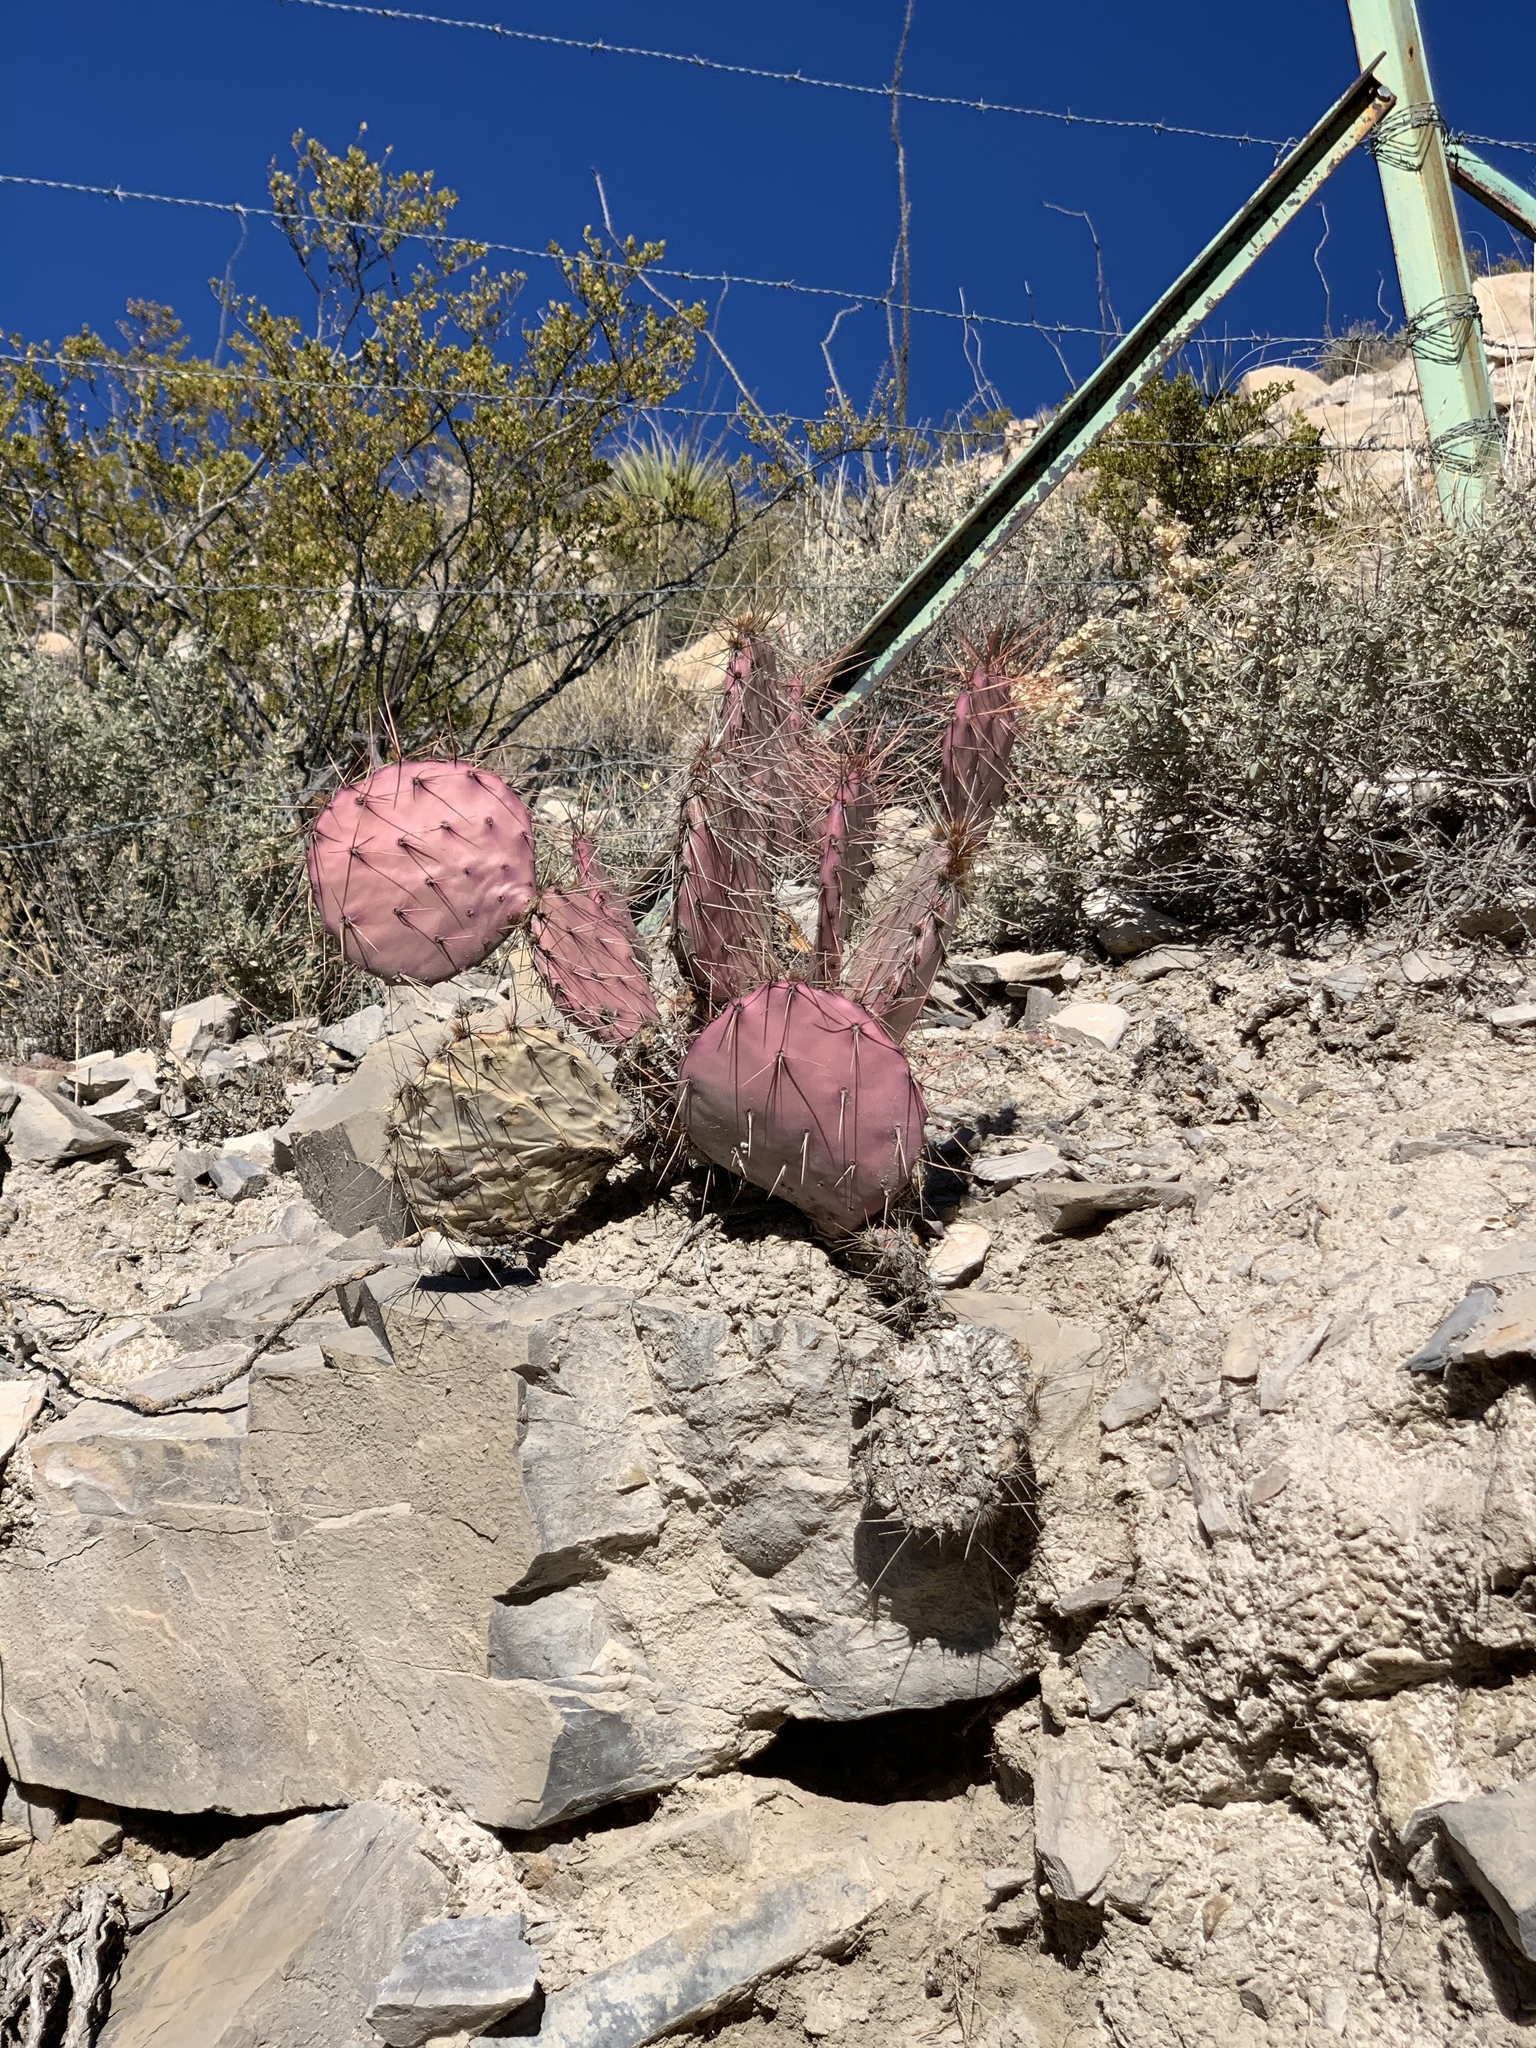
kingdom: Plantae
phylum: Tracheophyta
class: Magnoliopsida
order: Caryophyllales
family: Cactaceae
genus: Opuntia
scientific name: Opuntia macrocentra
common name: Purple prickly-pear
